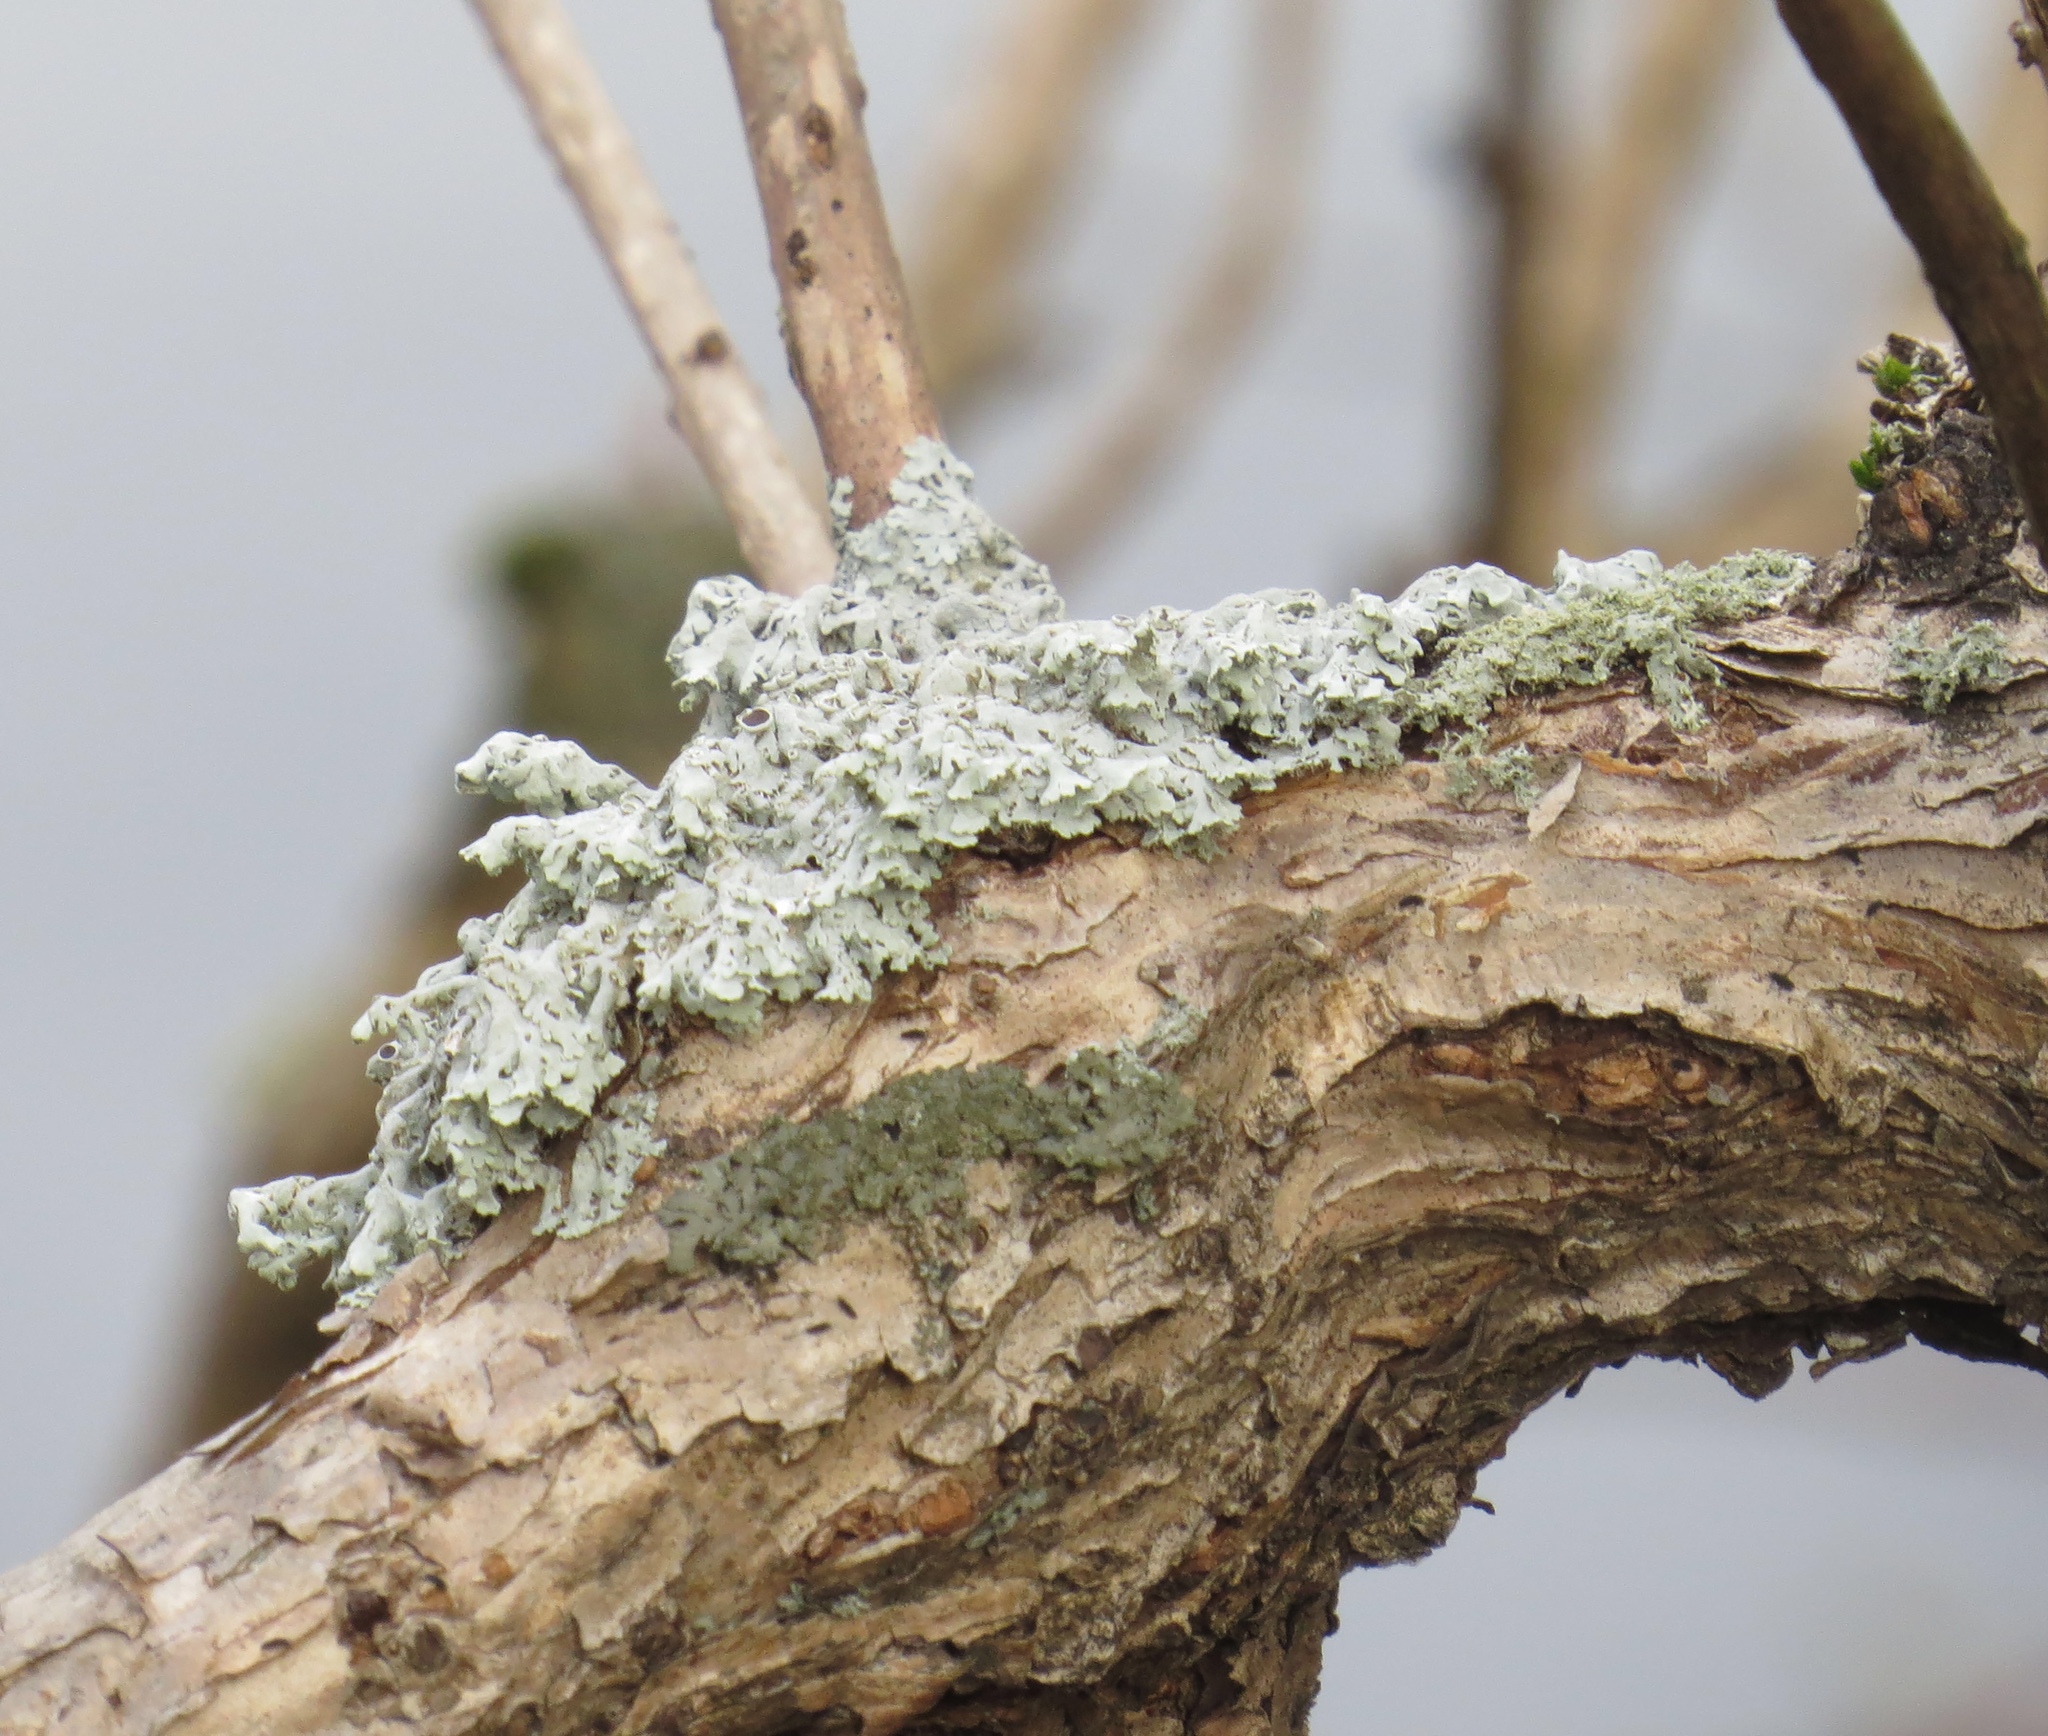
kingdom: Fungi
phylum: Ascomycota
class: Lecanoromycetes
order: Caliciales
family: Physciaceae
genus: Physcia
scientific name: Physcia stellaris
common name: Star rosette lichen
